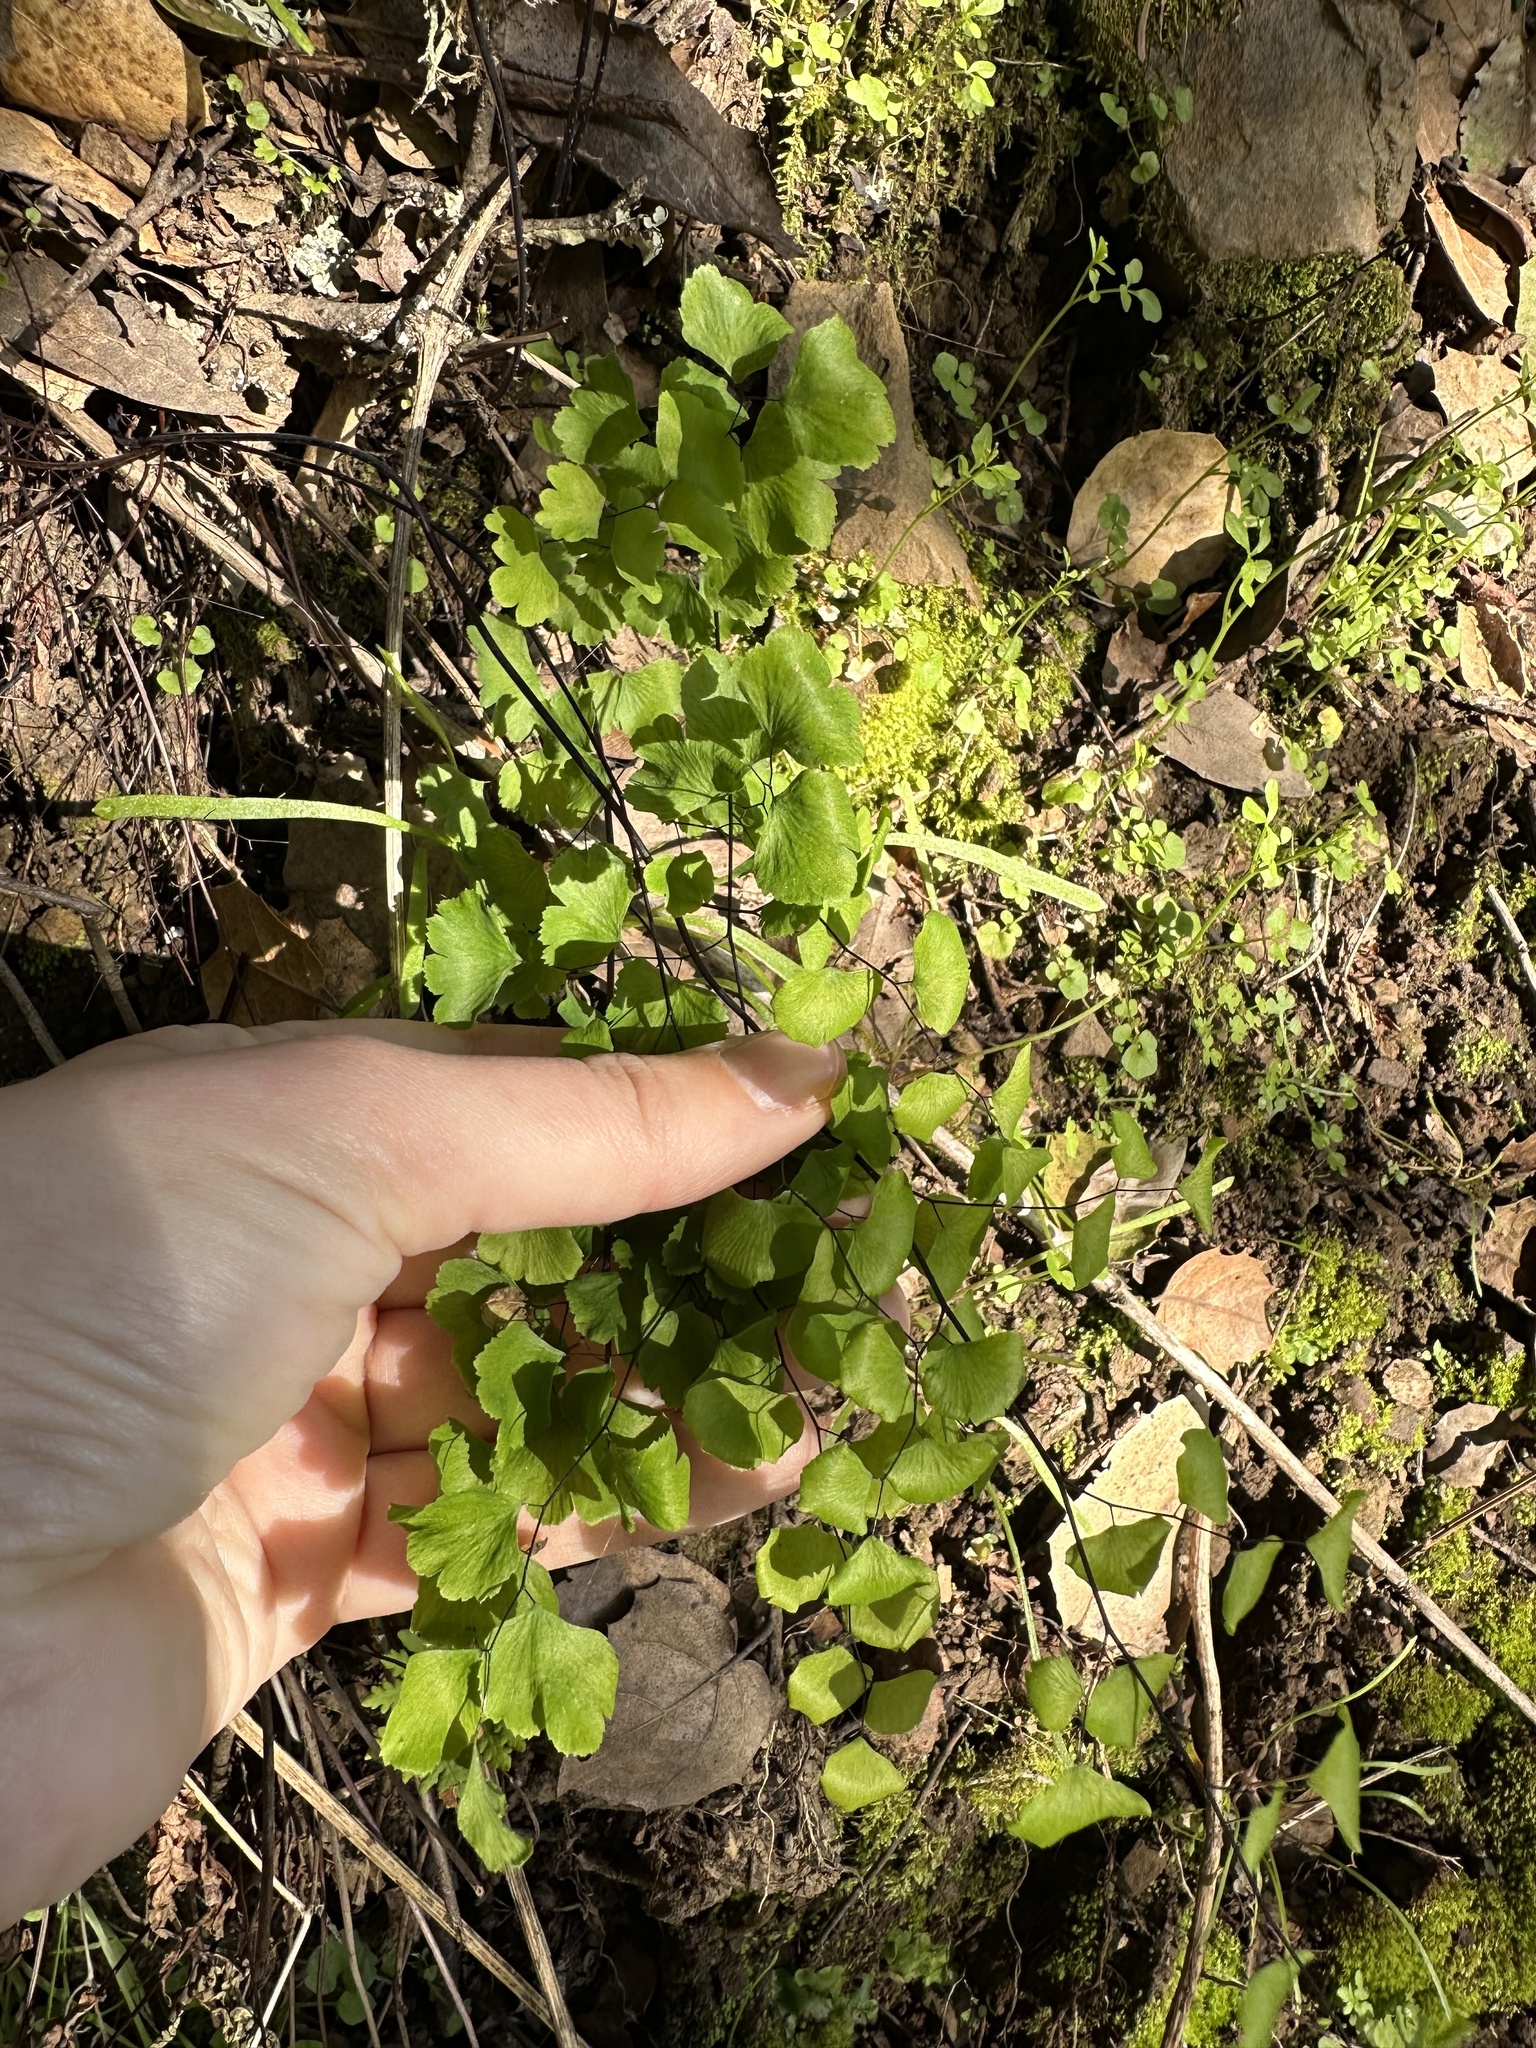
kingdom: Plantae
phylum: Tracheophyta
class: Polypodiopsida
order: Polypodiales
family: Pteridaceae
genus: Adiantum
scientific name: Adiantum jordanii
